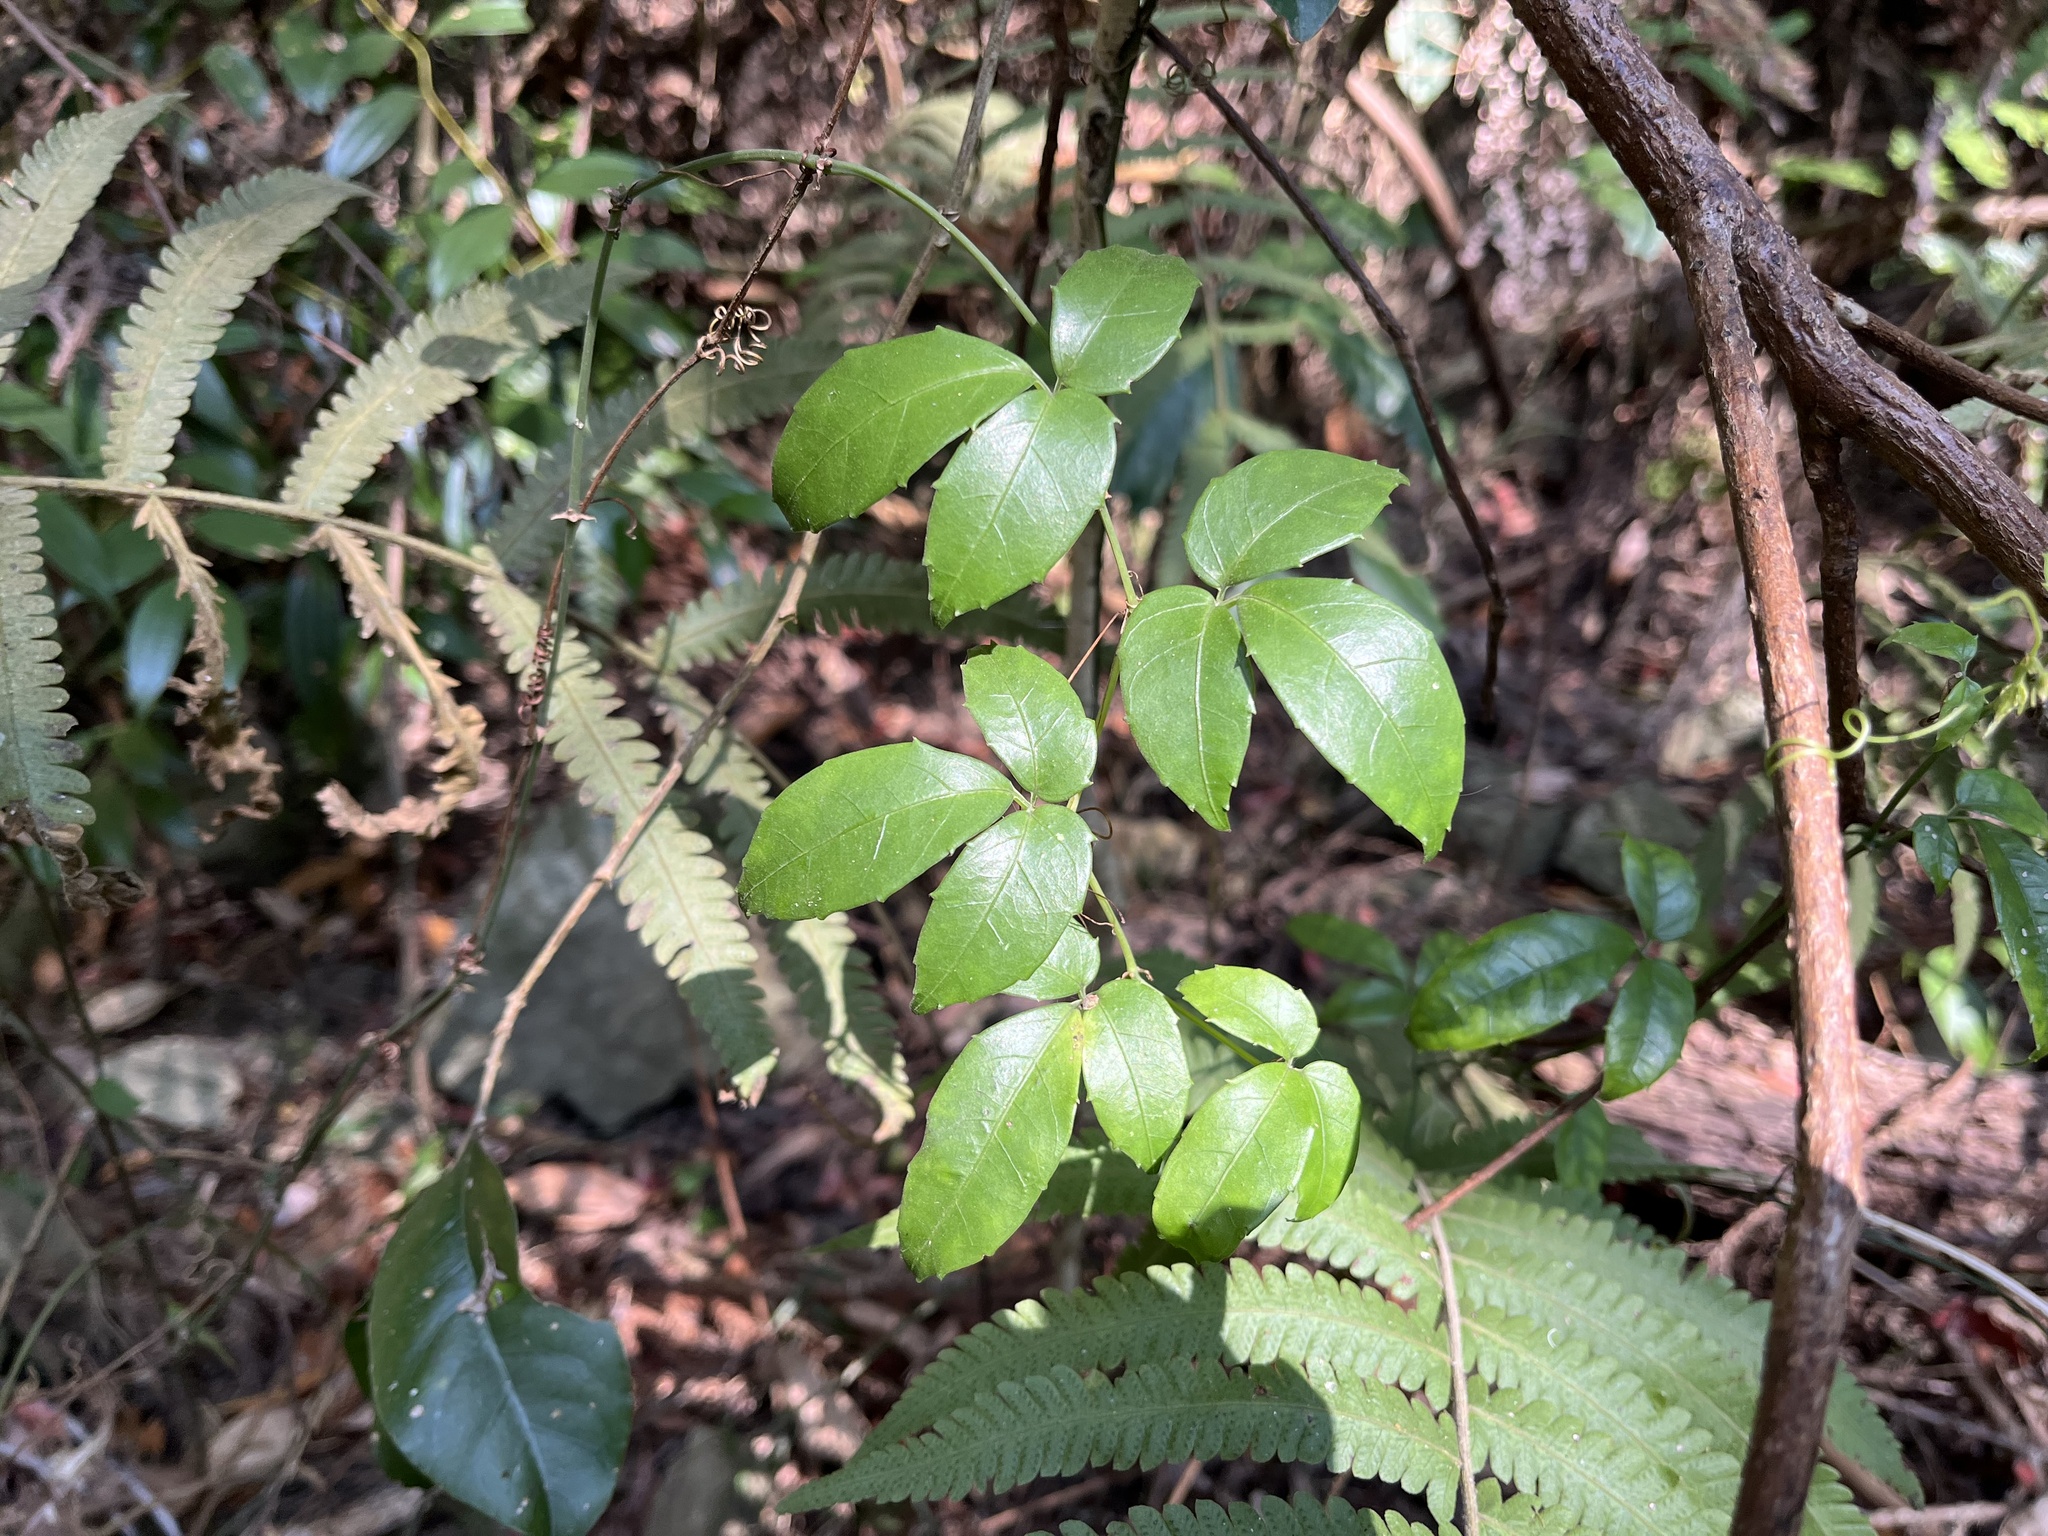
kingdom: Plantae
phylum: Tracheophyta
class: Magnoliopsida
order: Vitales
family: Vitaceae
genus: Tetrastigma
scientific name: Tetrastigma hemsleyanum
